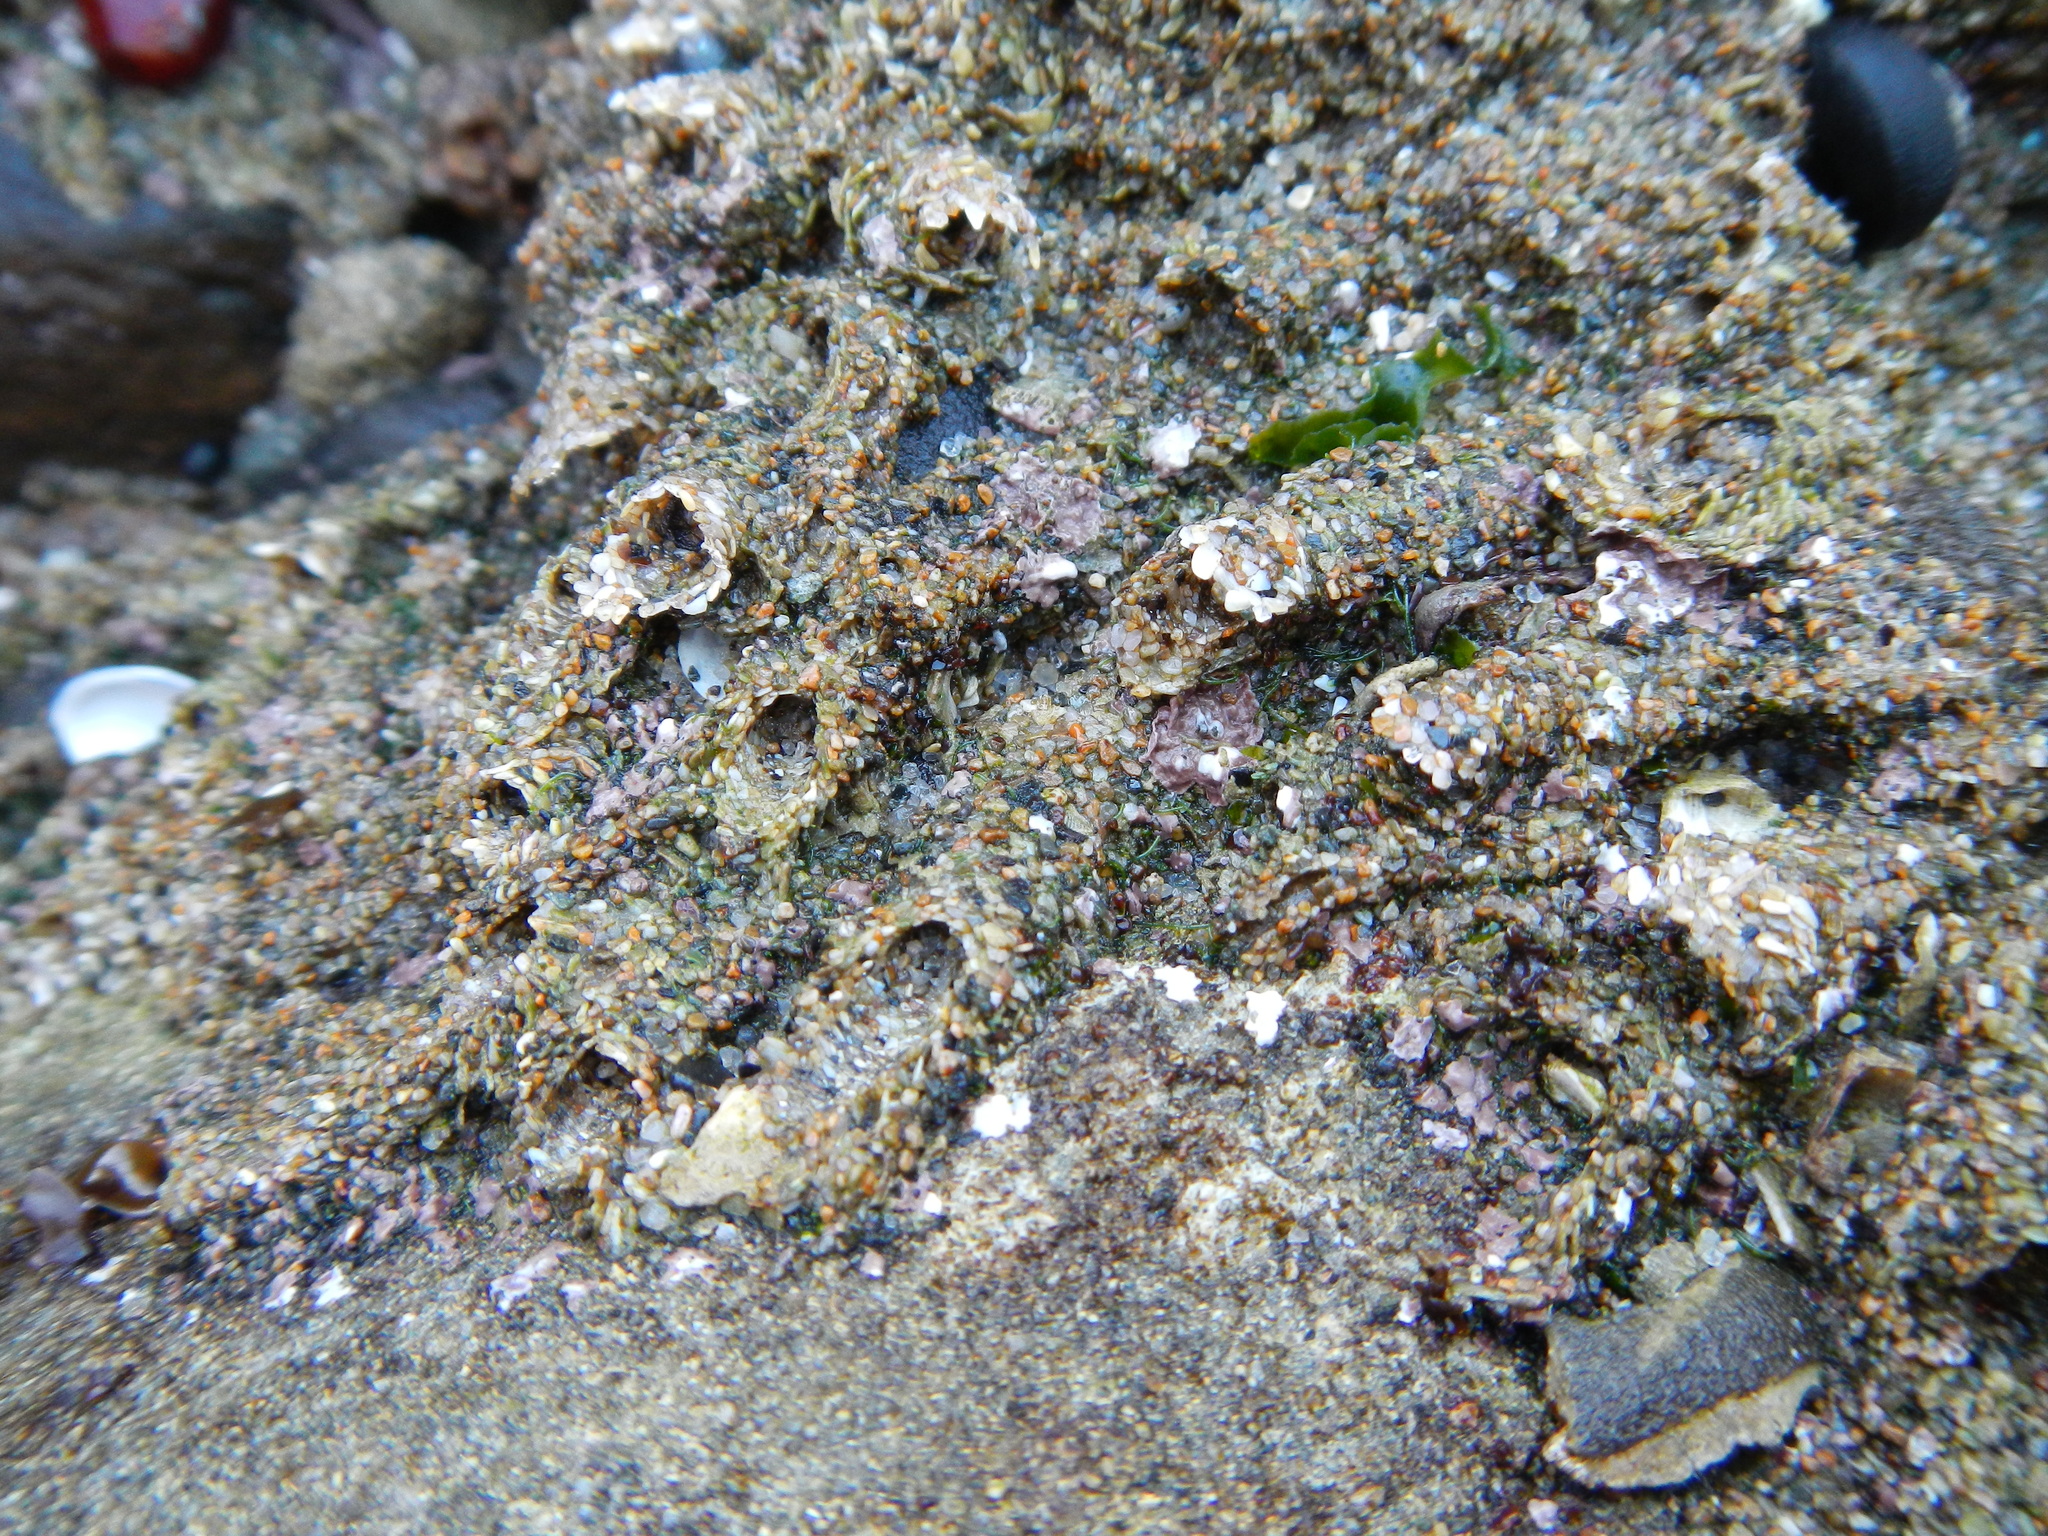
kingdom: Animalia
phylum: Annelida
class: Polychaeta
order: Sabellida
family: Sabellariidae
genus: Phragmatopoma
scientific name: Phragmatopoma virgini
